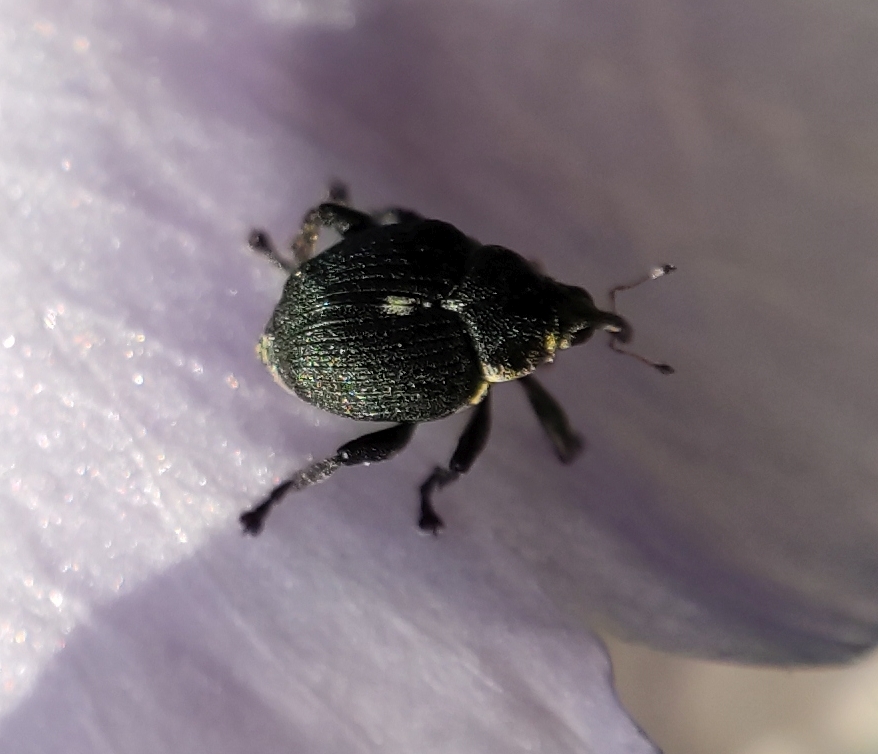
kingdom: Animalia
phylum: Arthropoda
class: Insecta
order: Coleoptera
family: Curculionidae
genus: Mononychus
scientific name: Mononychus punctumalbum
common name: Iris weevil
